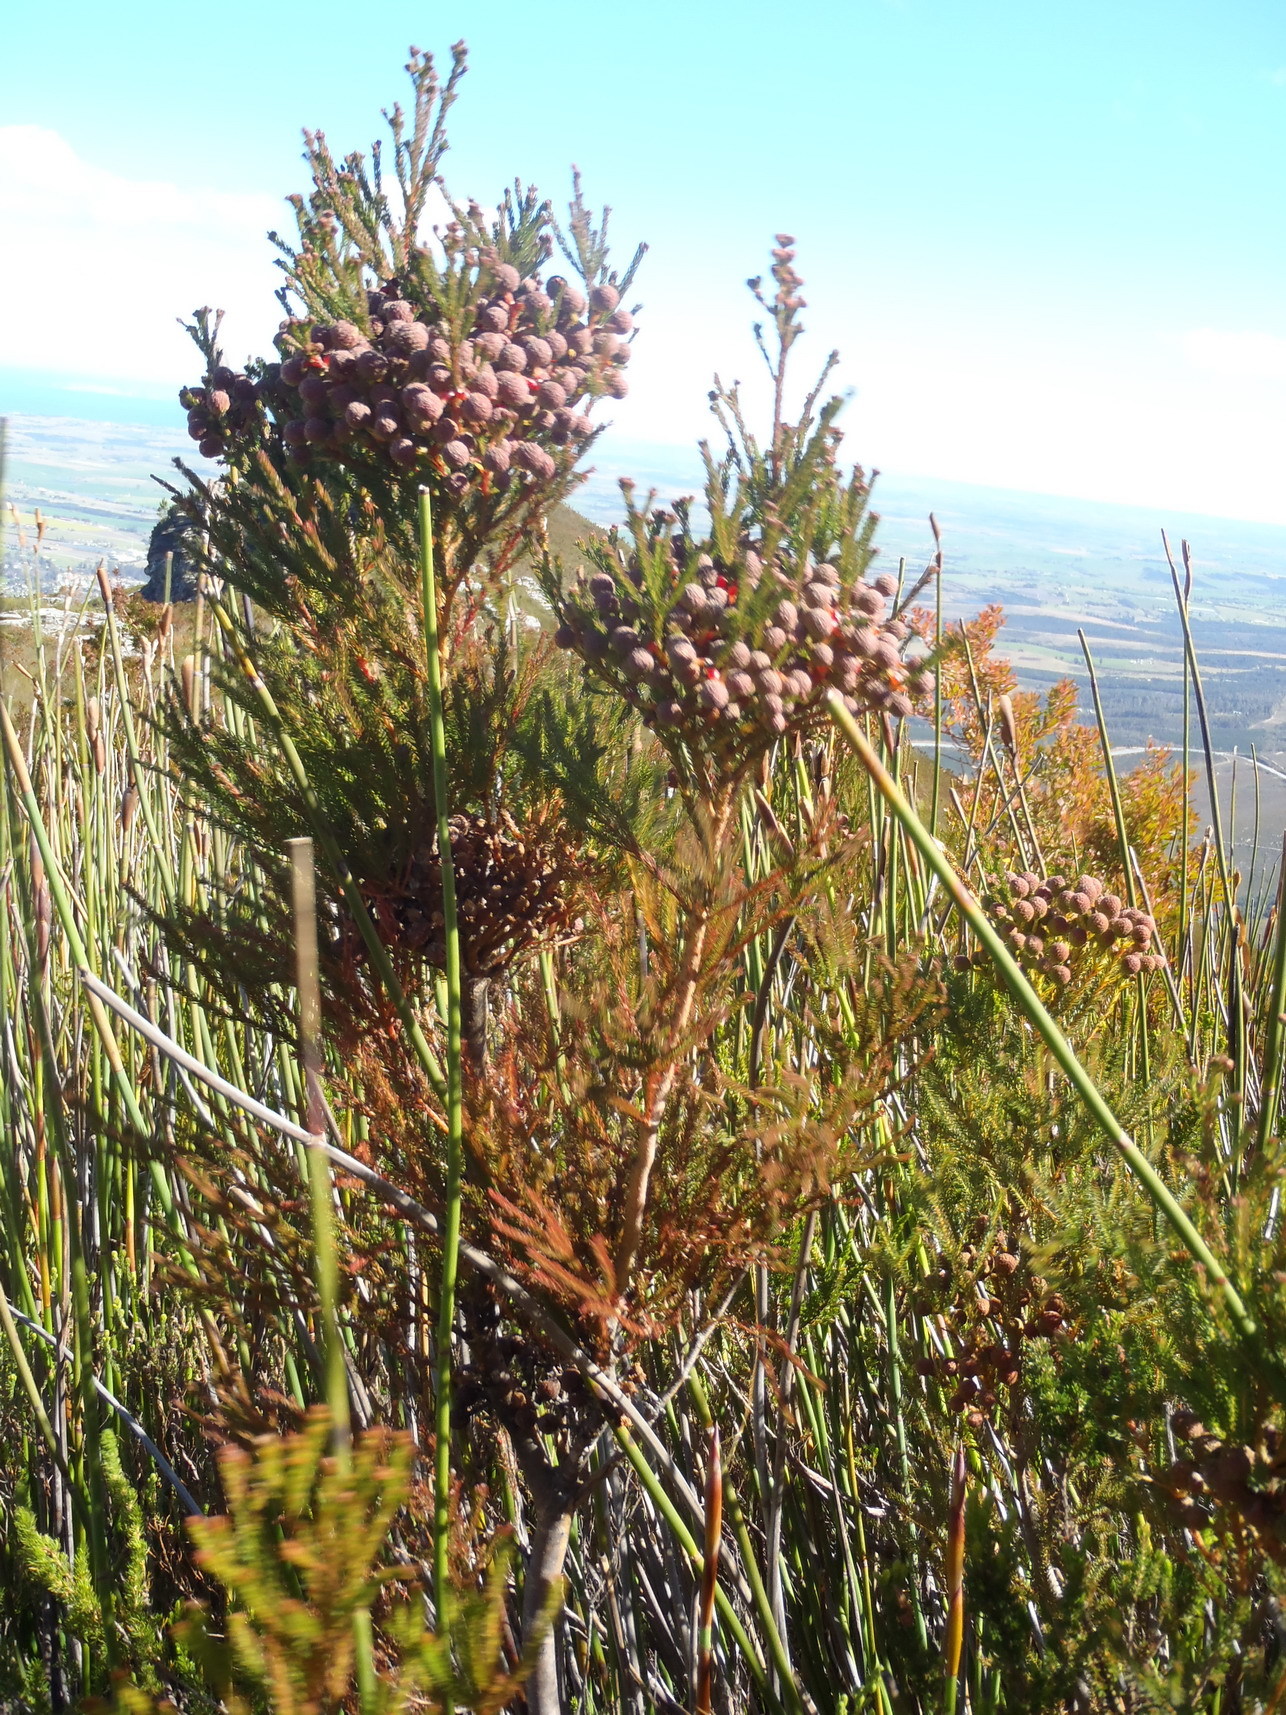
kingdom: Plantae
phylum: Tracheophyta
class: Magnoliopsida
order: Bruniales
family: Bruniaceae
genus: Berzelia
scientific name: Berzelia intermedia
